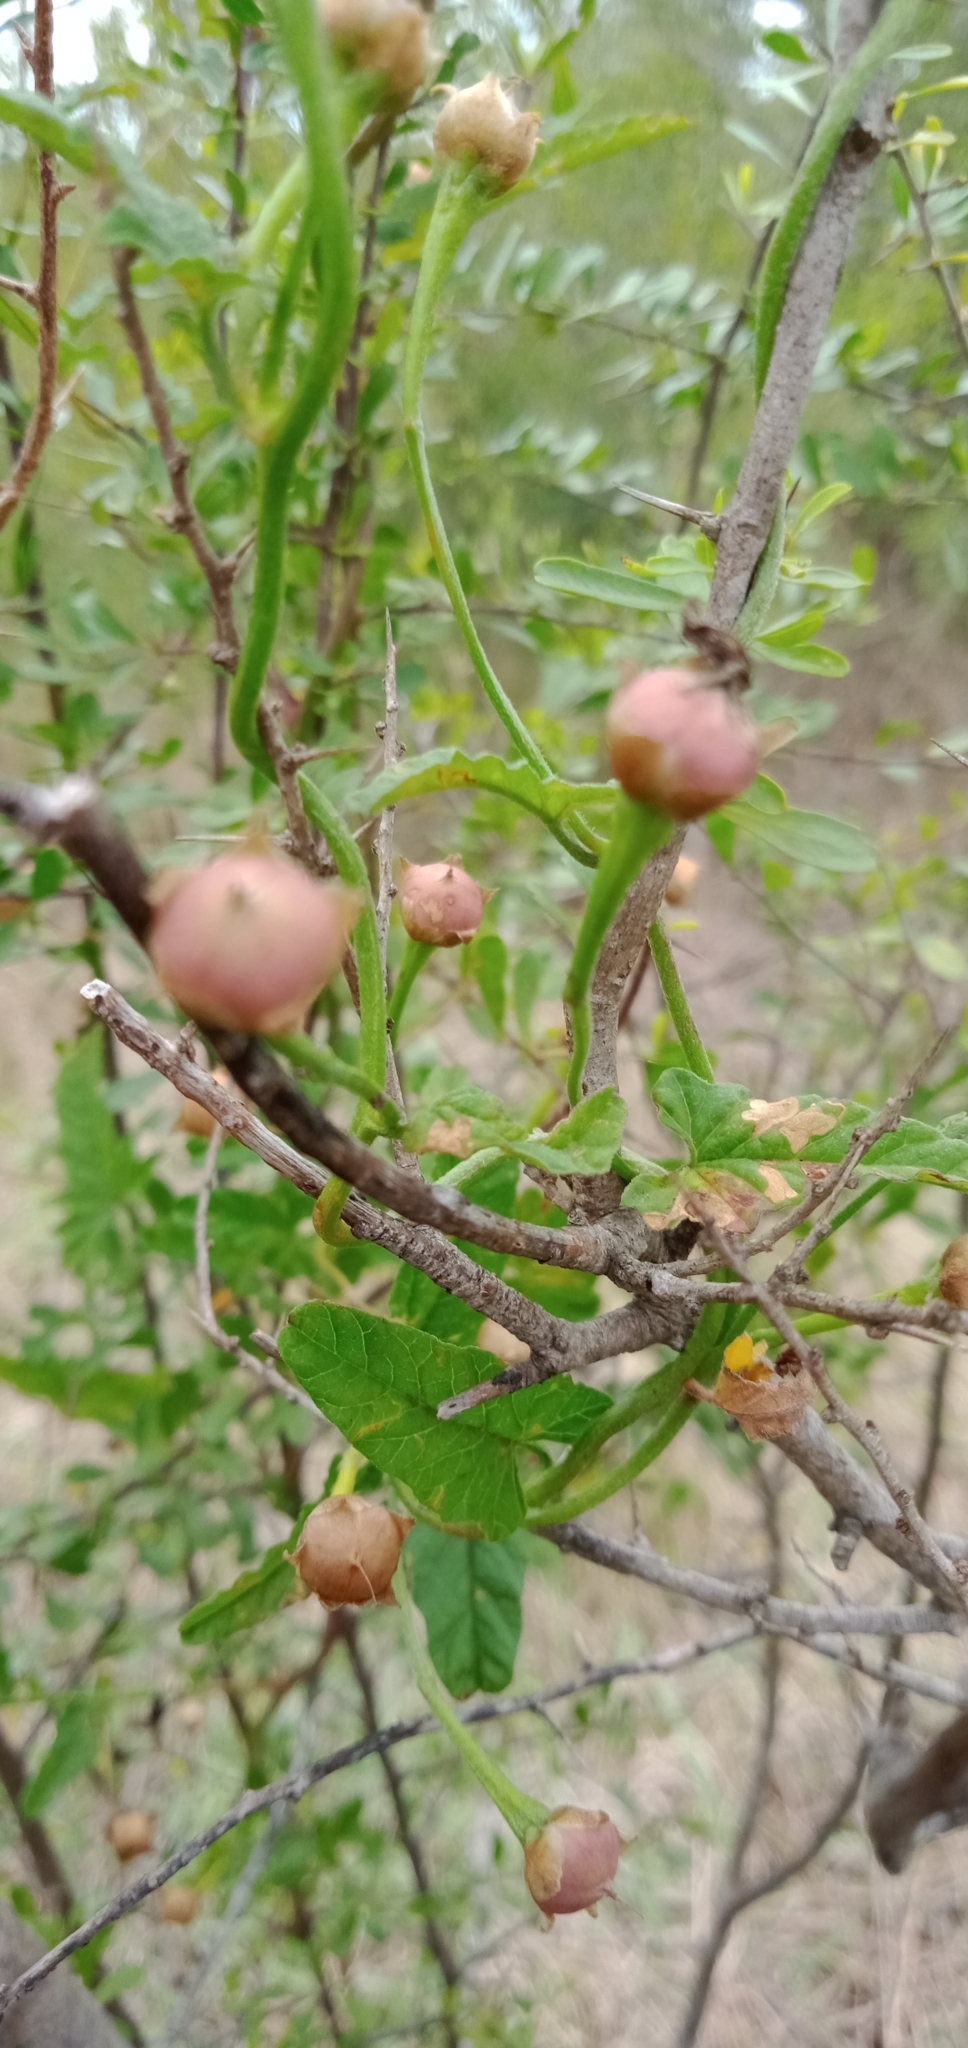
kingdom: Plantae
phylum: Tracheophyta
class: Magnoliopsida
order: Solanales
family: Convolvulaceae
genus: Ipomoea
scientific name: Ipomoea biflora
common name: Bellvine
